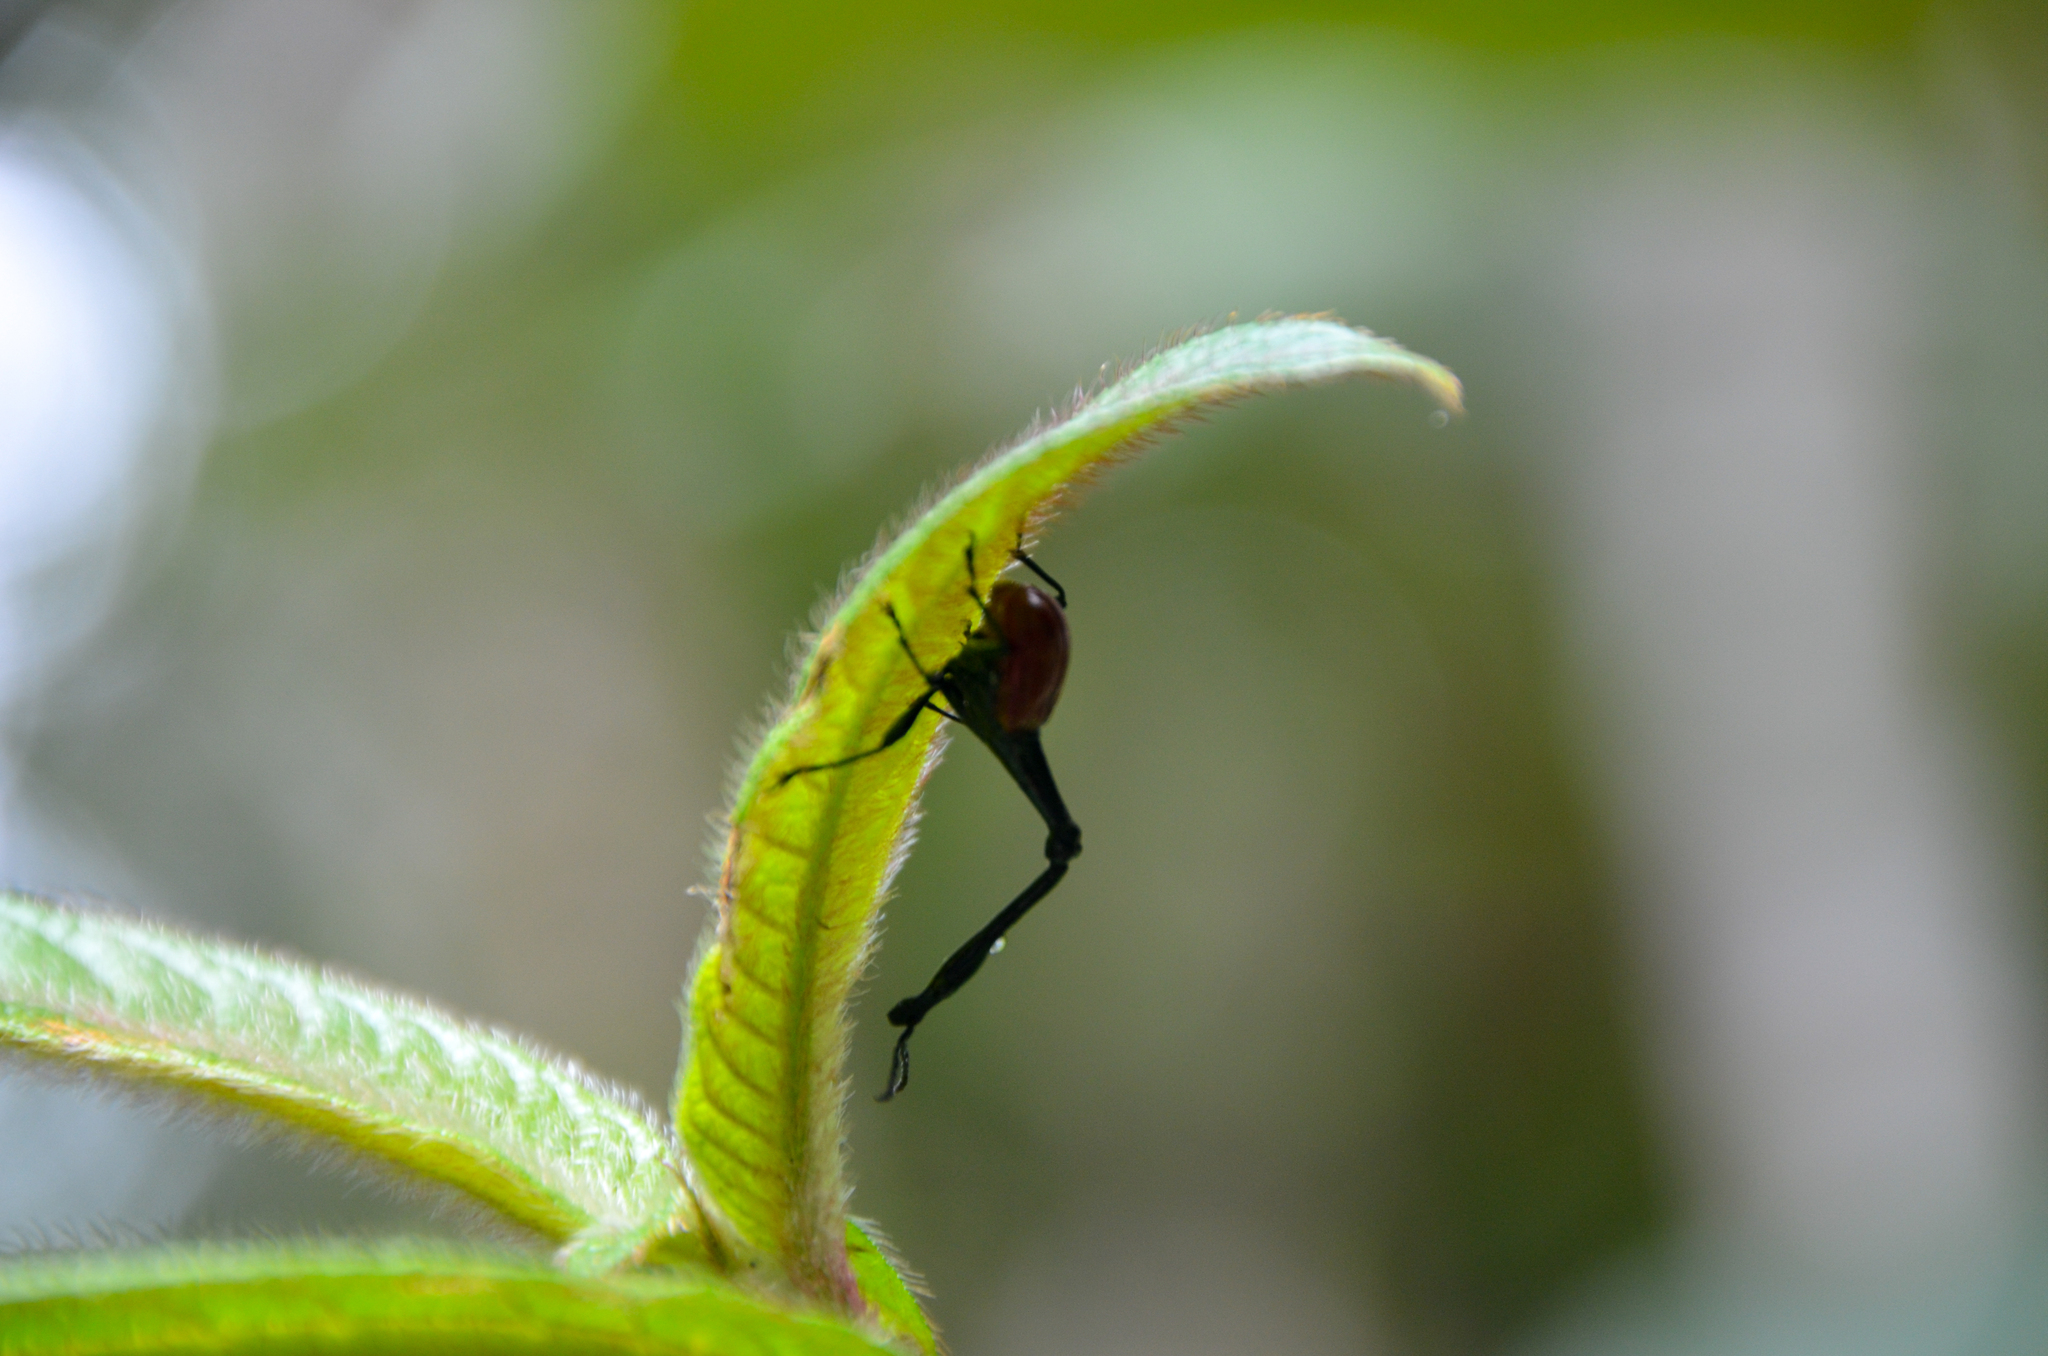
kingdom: Animalia
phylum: Arthropoda
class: Insecta
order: Coleoptera
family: Attelabidae
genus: Trachelophorus
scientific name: Trachelophorus giraffa
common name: Giraffe weevil
